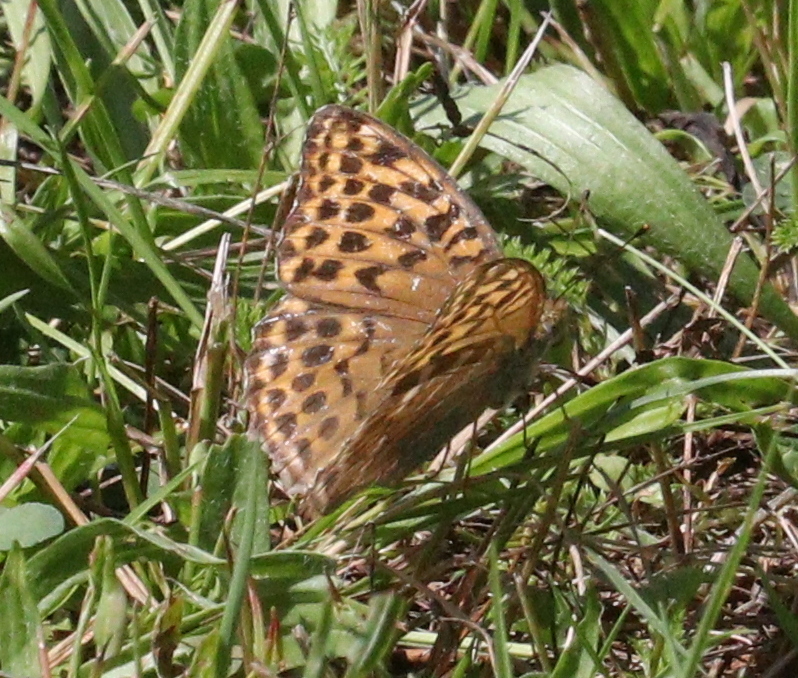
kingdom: Animalia
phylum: Arthropoda
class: Insecta
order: Lepidoptera
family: Nymphalidae
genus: Argynnis
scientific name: Argynnis paphia
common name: Silver-washed fritillary
